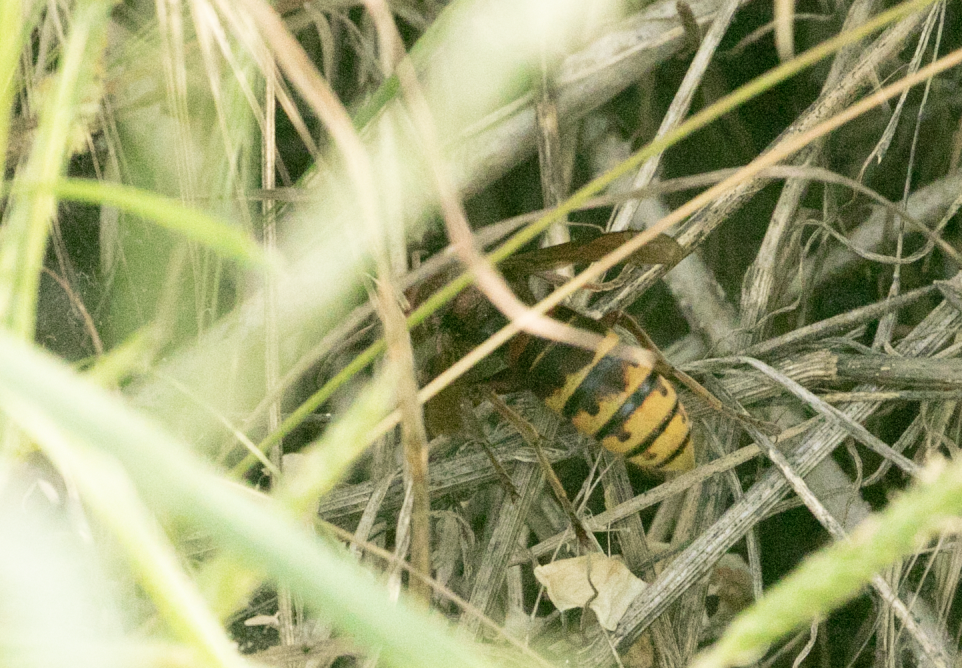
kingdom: Animalia
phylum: Arthropoda
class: Insecta
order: Hymenoptera
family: Vespidae
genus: Vespa
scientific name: Vespa crabro
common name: Hornet
